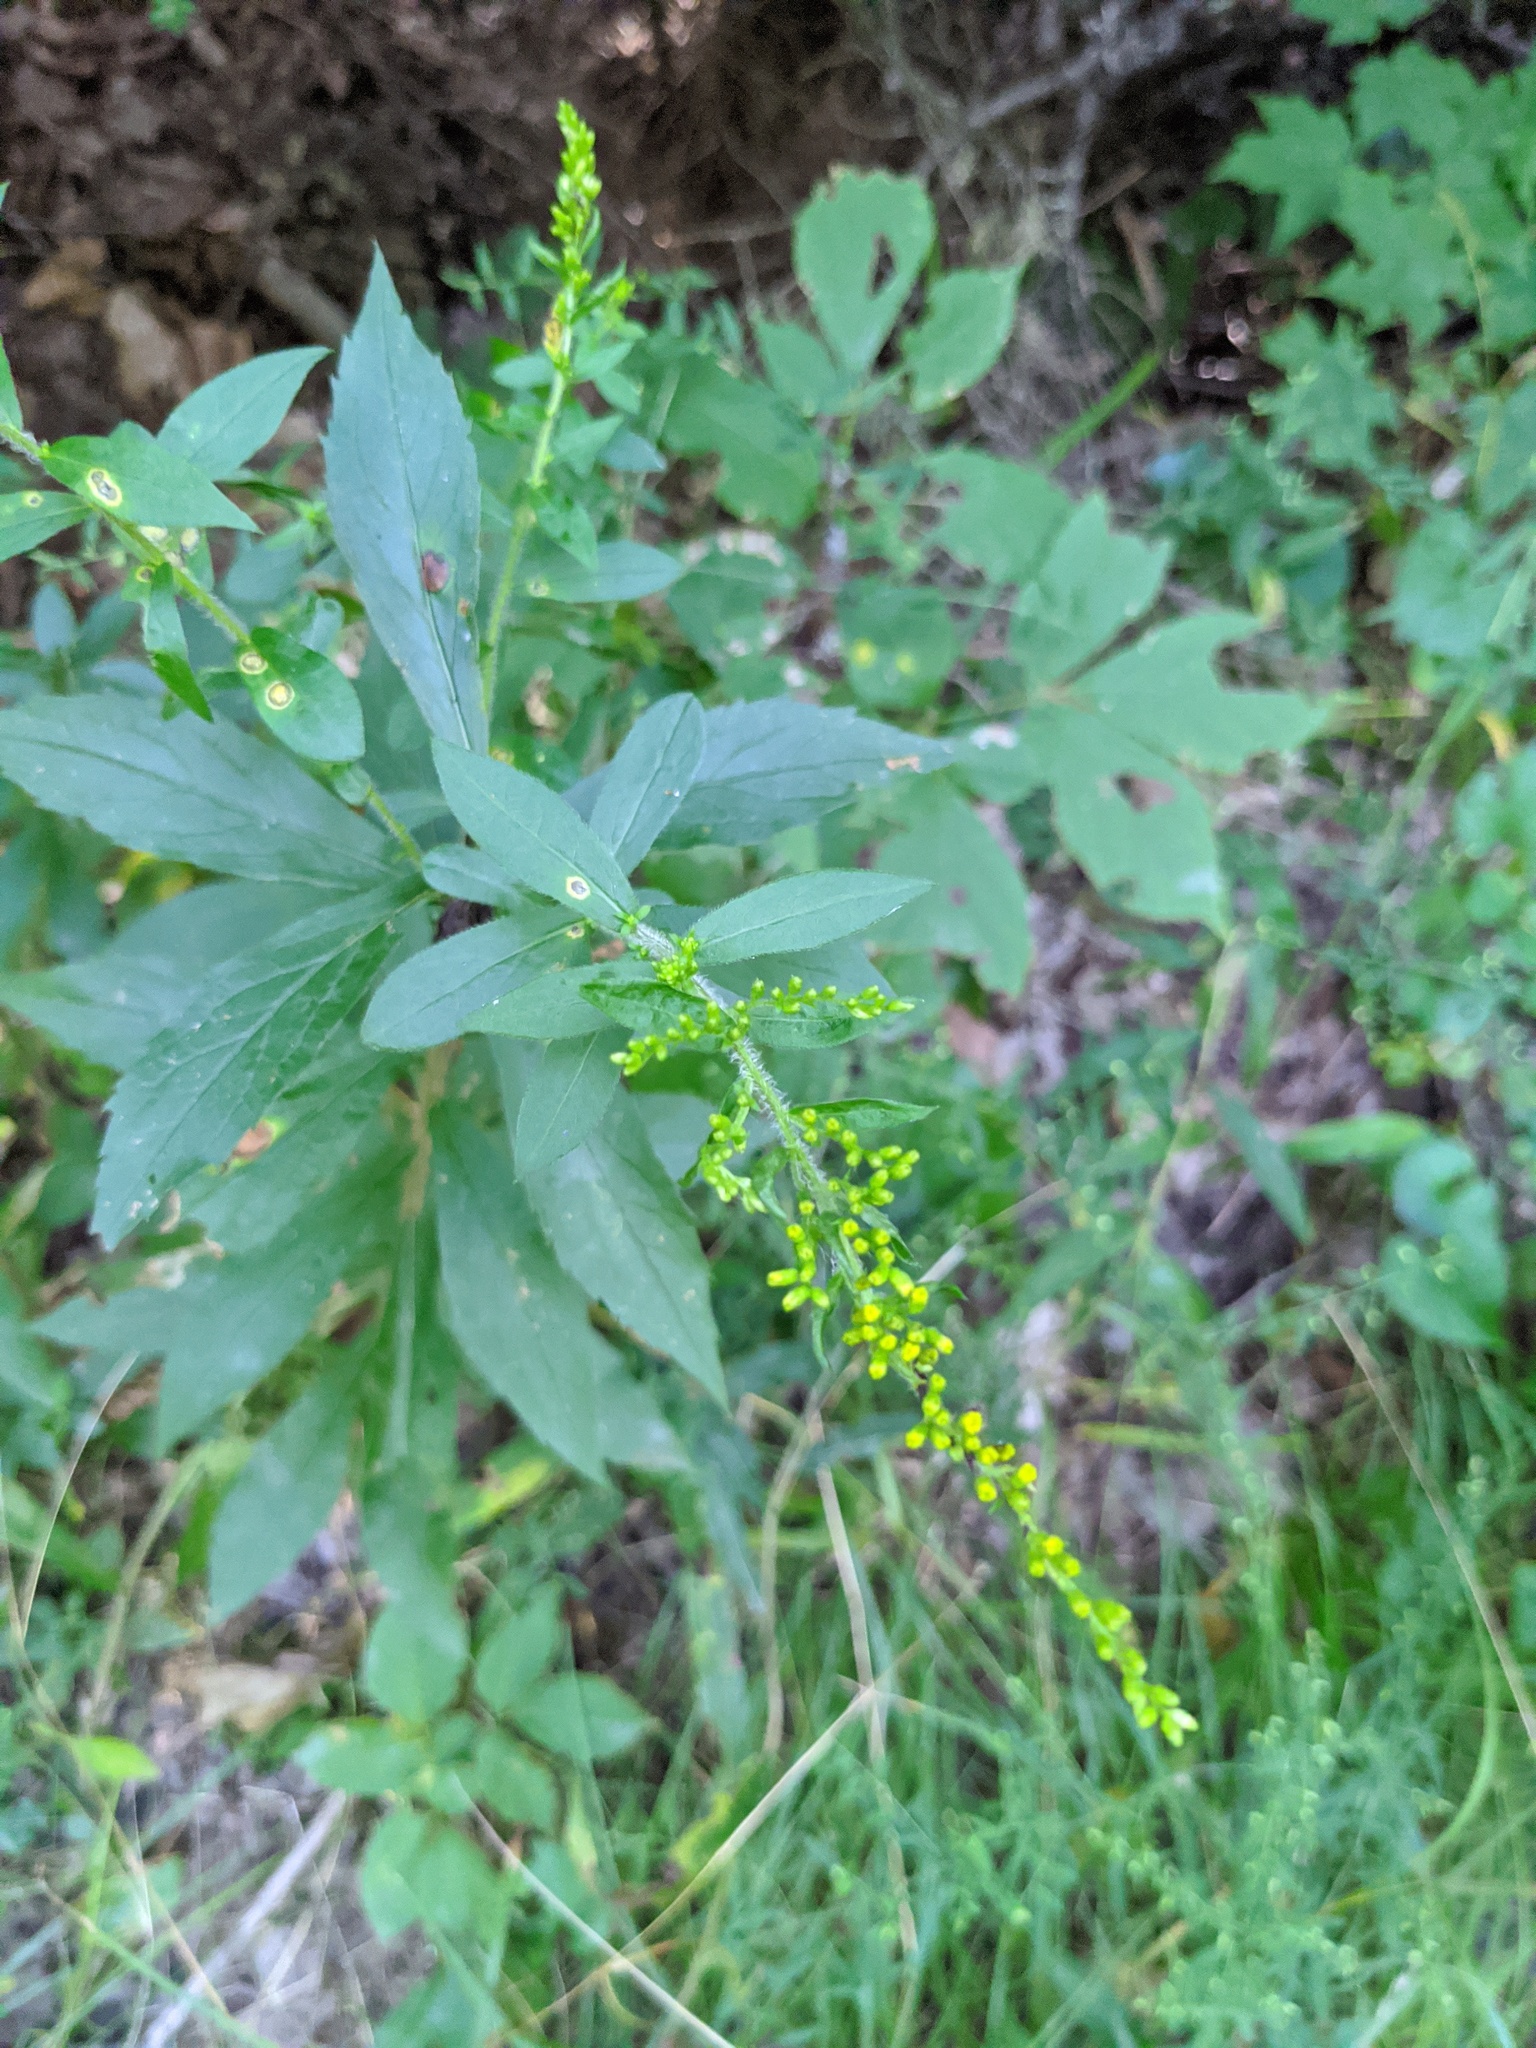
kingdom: Plantae
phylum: Tracheophyta
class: Magnoliopsida
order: Asterales
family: Asteraceae
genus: Solidago
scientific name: Solidago rugosa
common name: Rough-stemmed goldenrod
